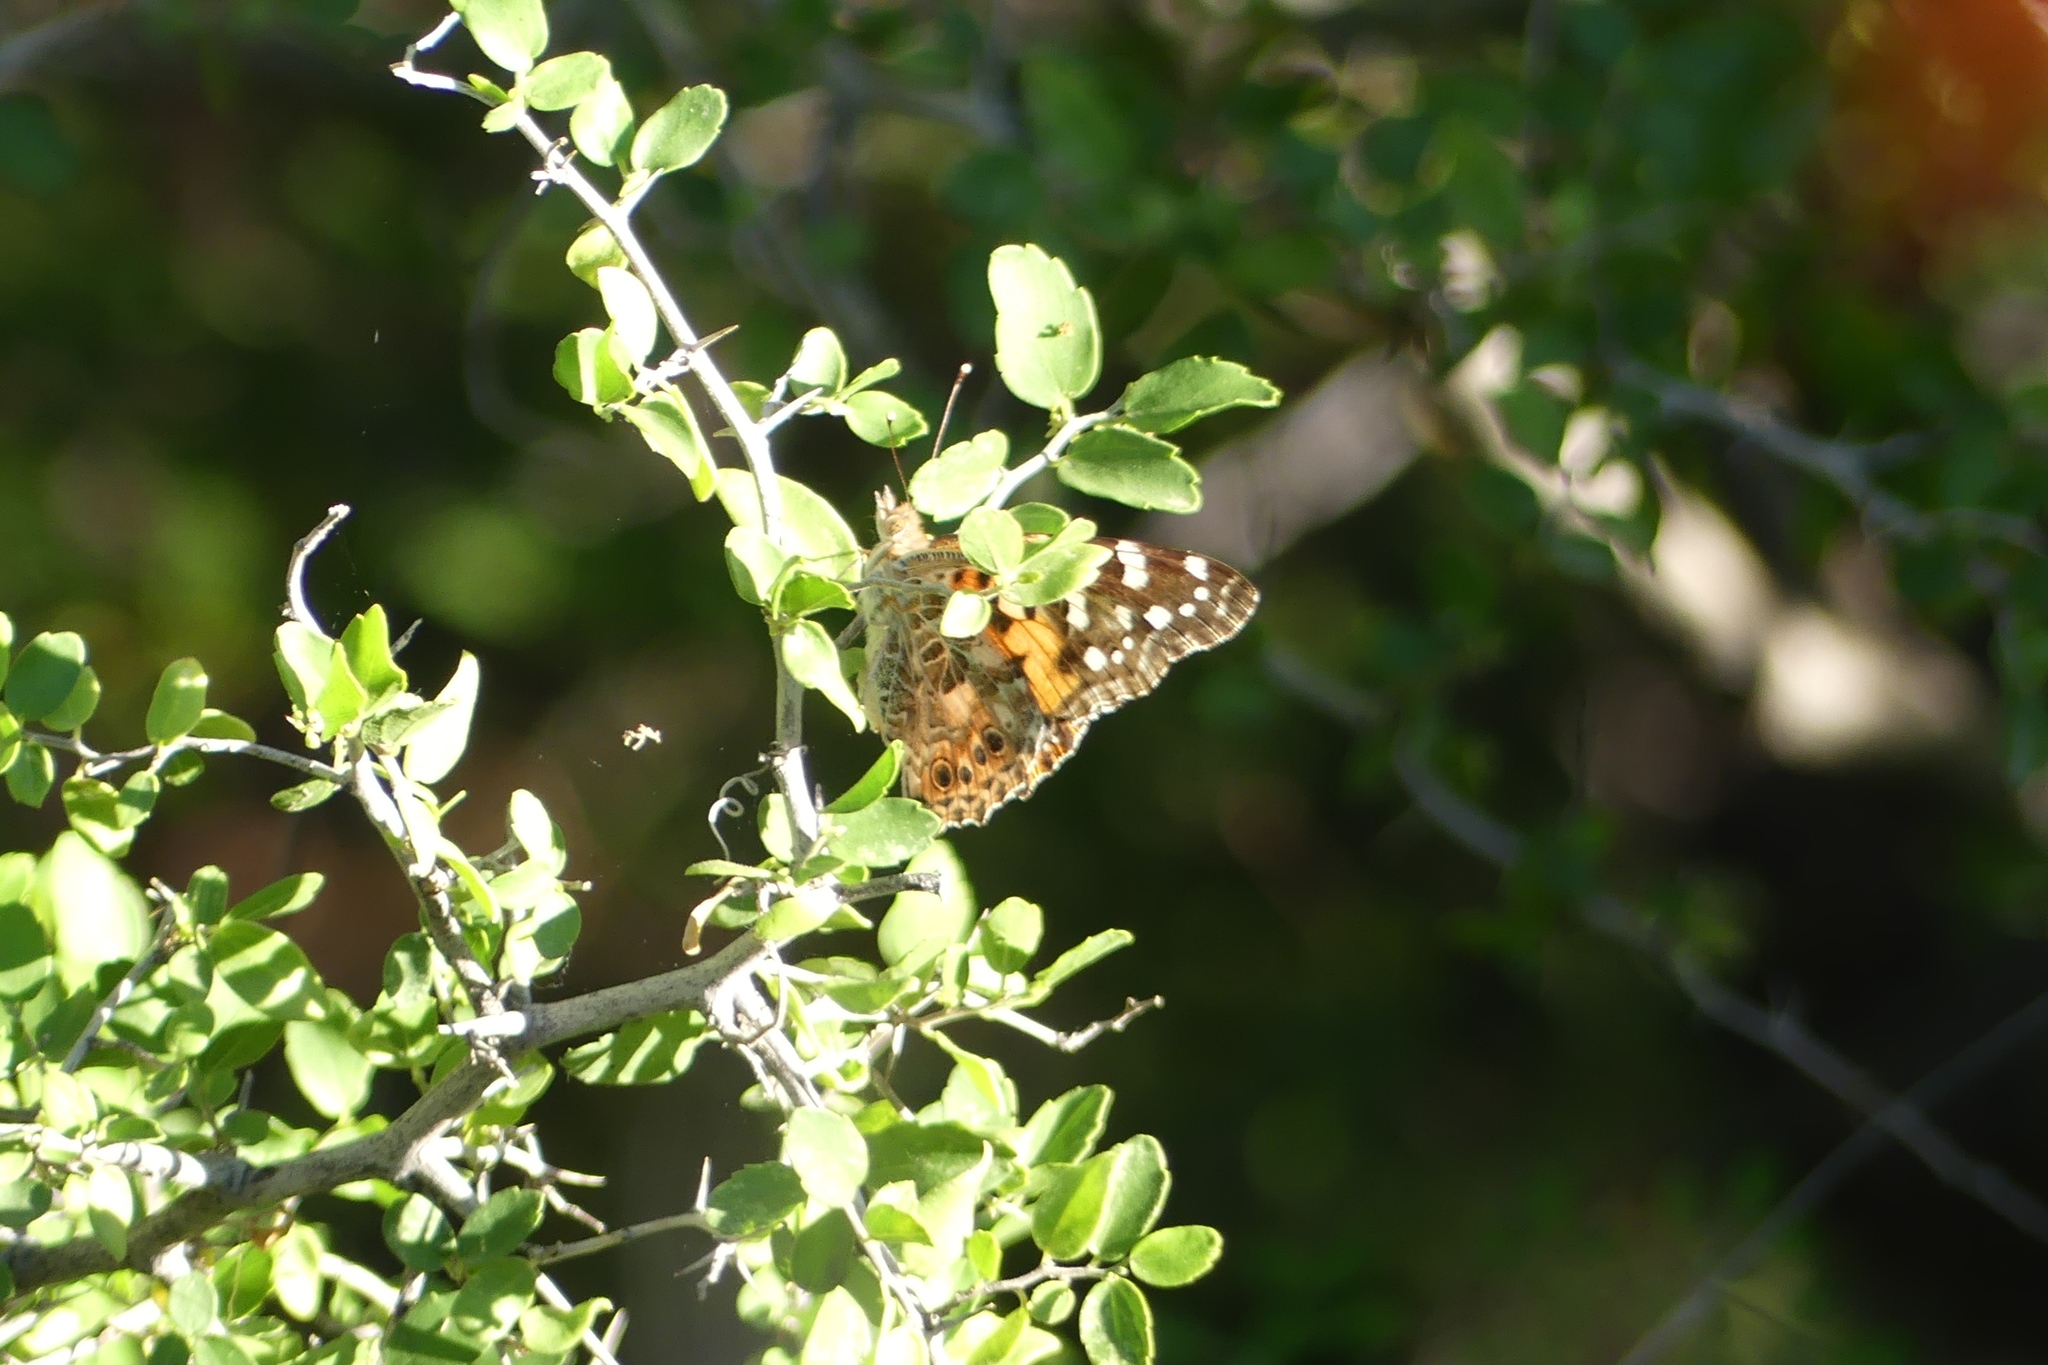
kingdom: Animalia
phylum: Arthropoda
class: Insecta
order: Lepidoptera
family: Nymphalidae
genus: Vanessa
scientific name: Vanessa cardui
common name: Painted lady
